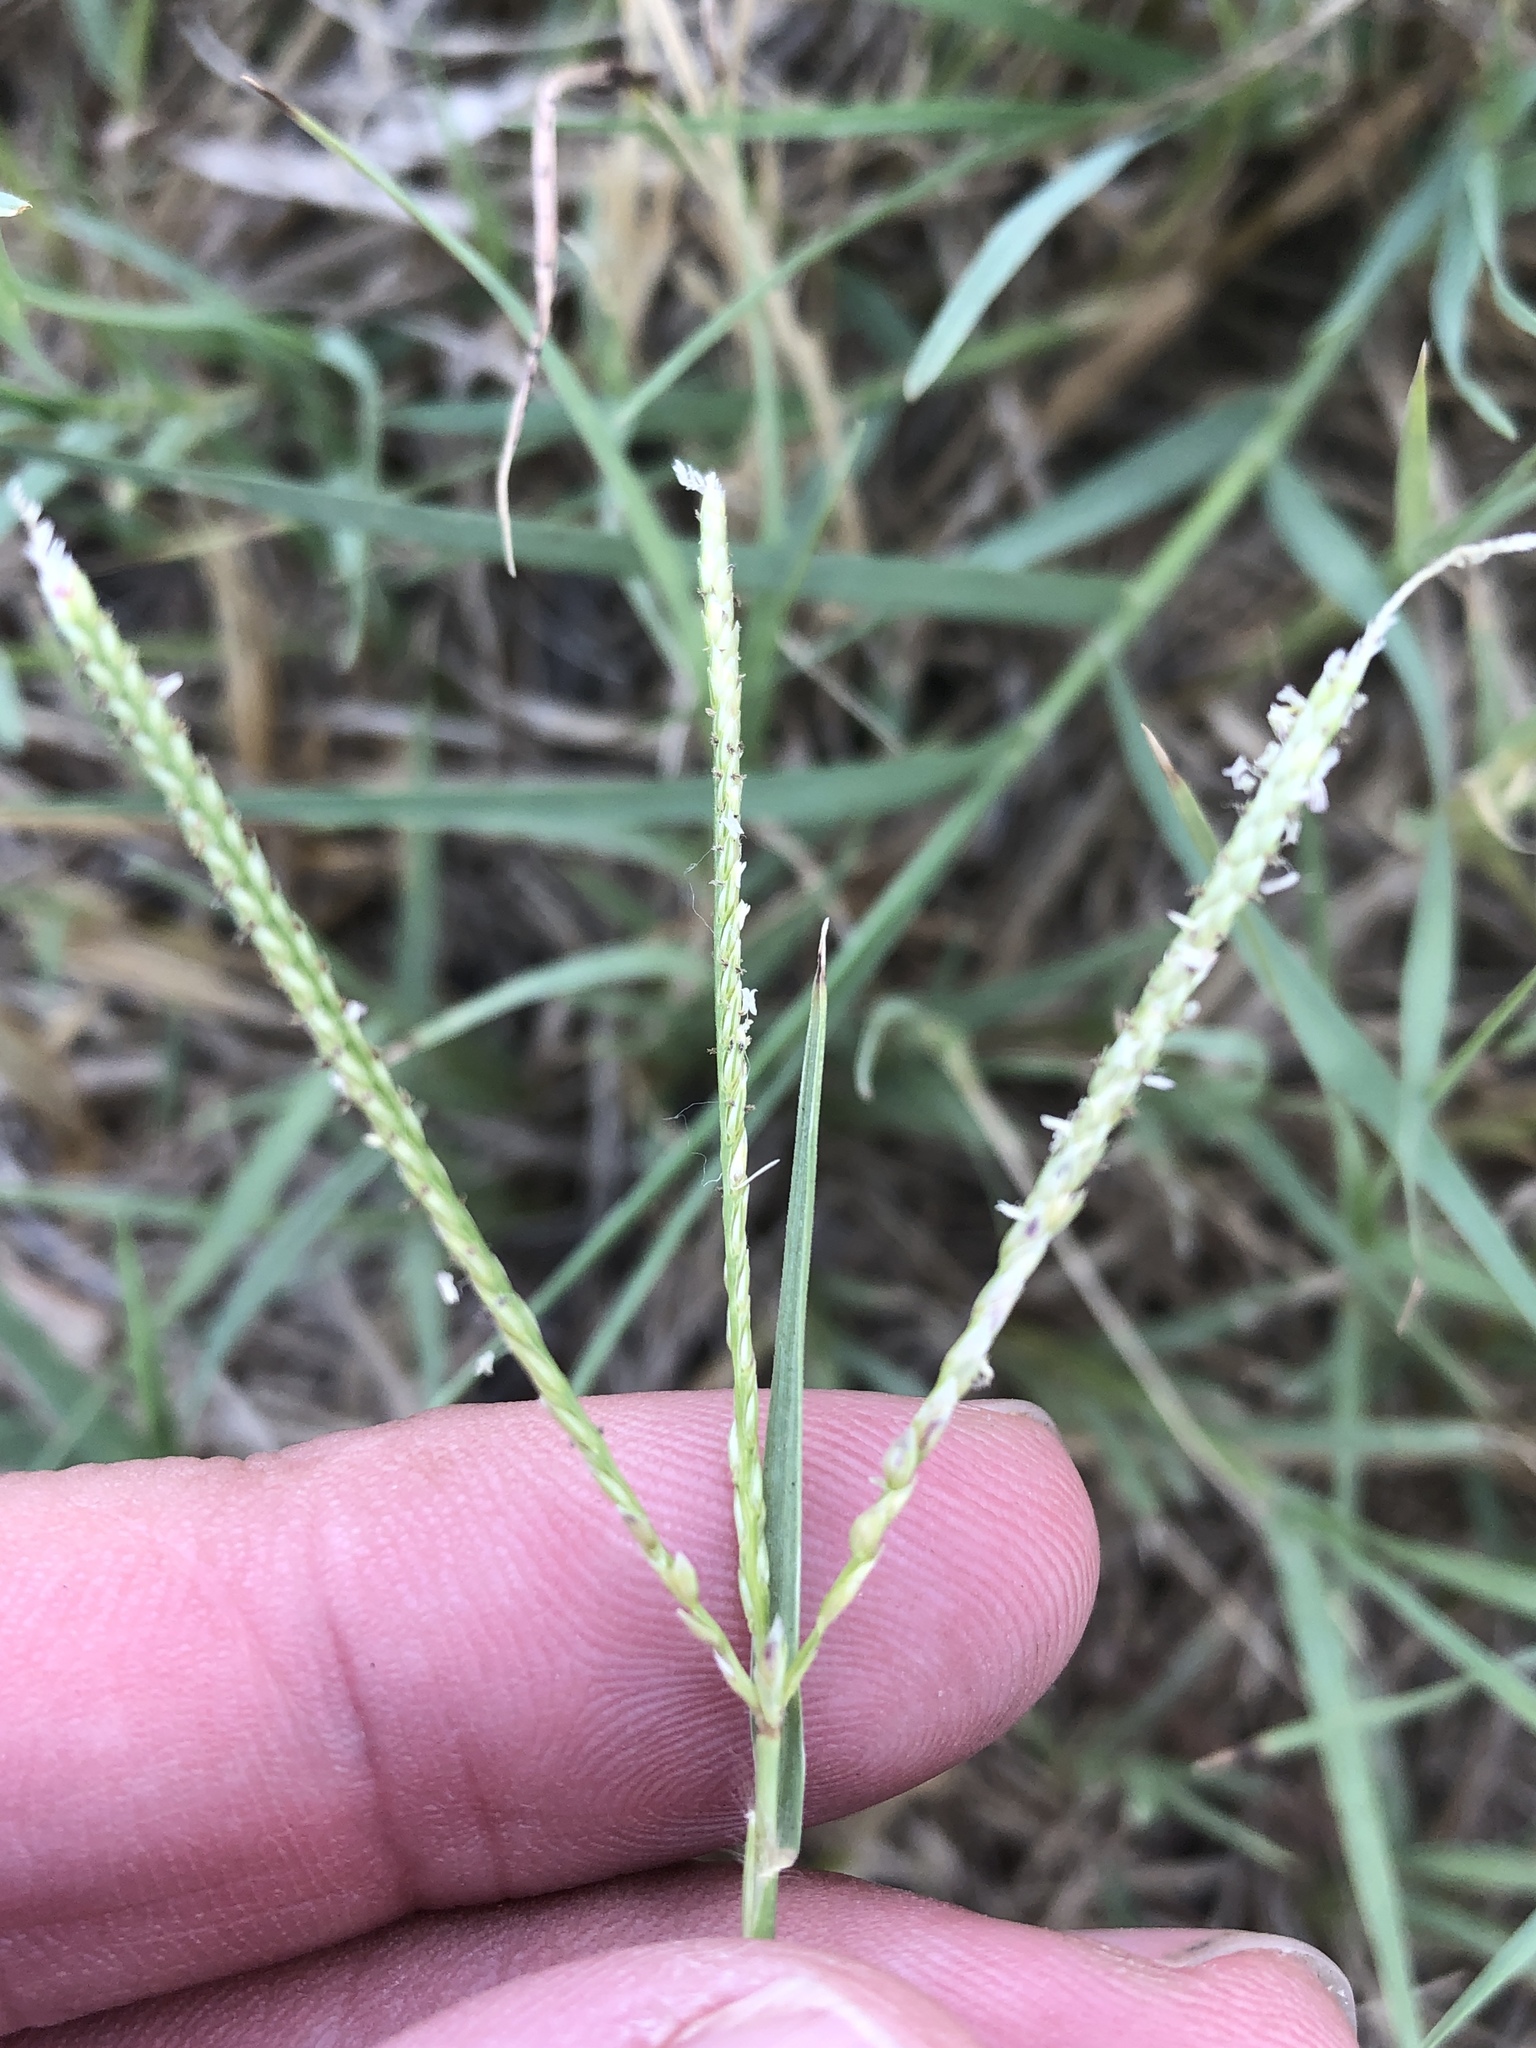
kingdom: Plantae
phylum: Tracheophyta
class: Liliopsida
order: Poales
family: Poaceae
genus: Cynodon
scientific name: Cynodon dactylon
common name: Bermuda grass
